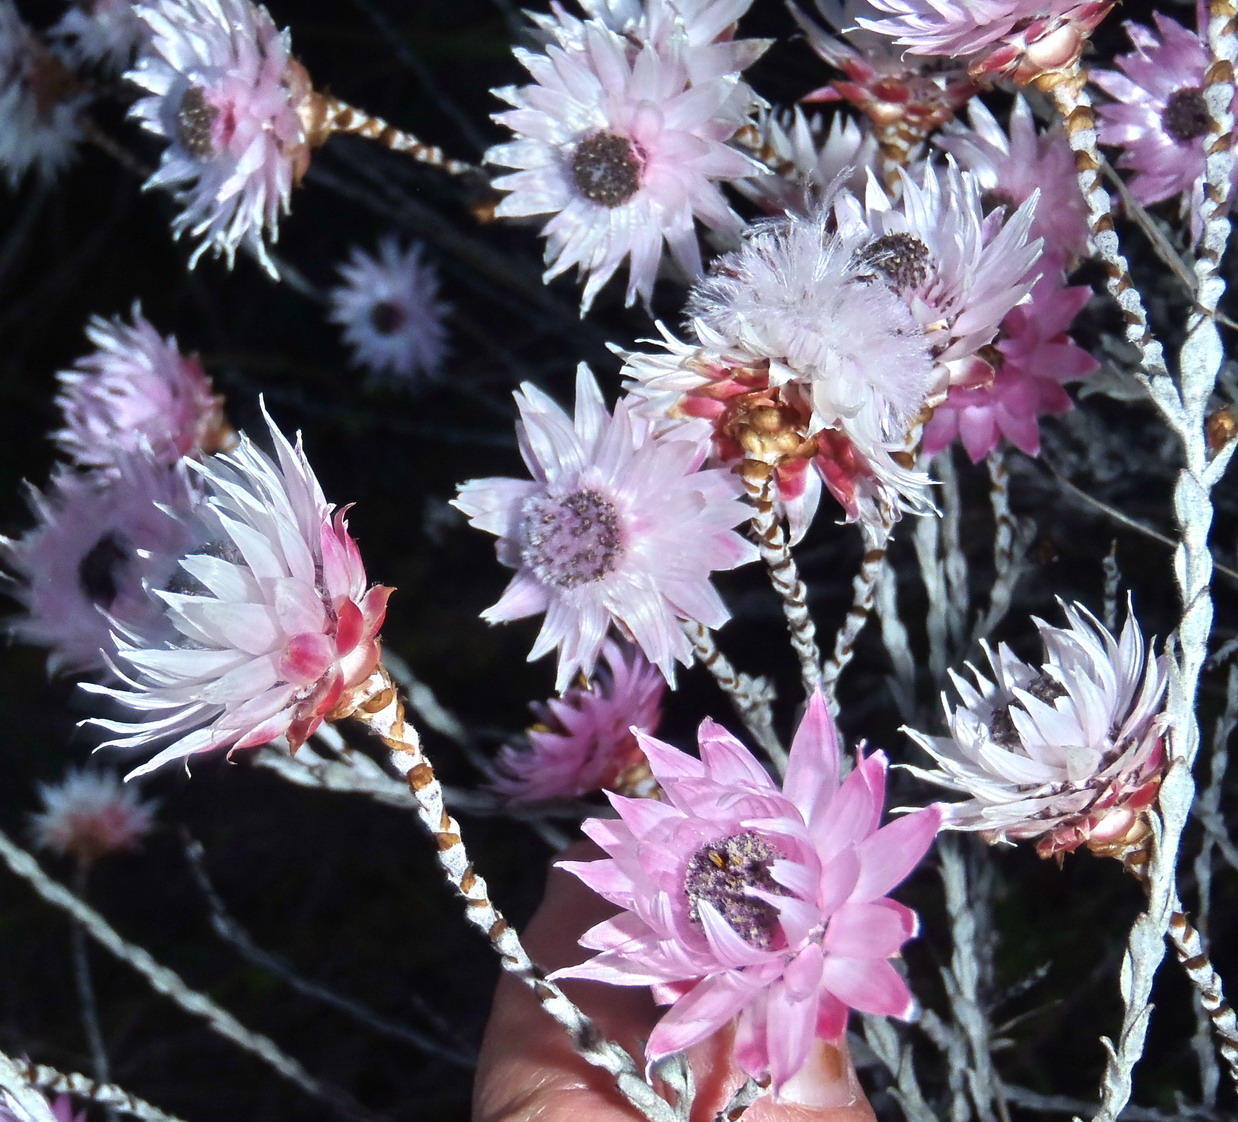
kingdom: Plantae
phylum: Tracheophyta
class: Magnoliopsida
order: Asterales
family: Asteraceae
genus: Syncarpha
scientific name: Syncarpha canescens
